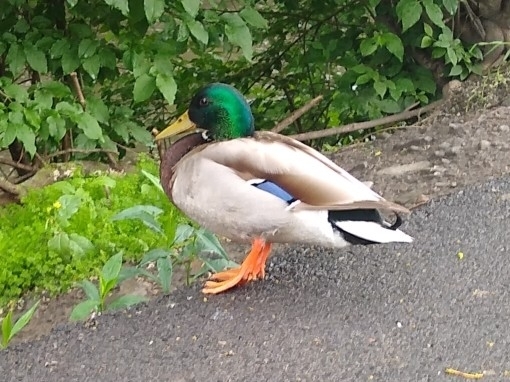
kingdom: Animalia
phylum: Chordata
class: Aves
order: Anseriformes
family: Anatidae
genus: Anas
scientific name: Anas platyrhynchos
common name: Mallard
